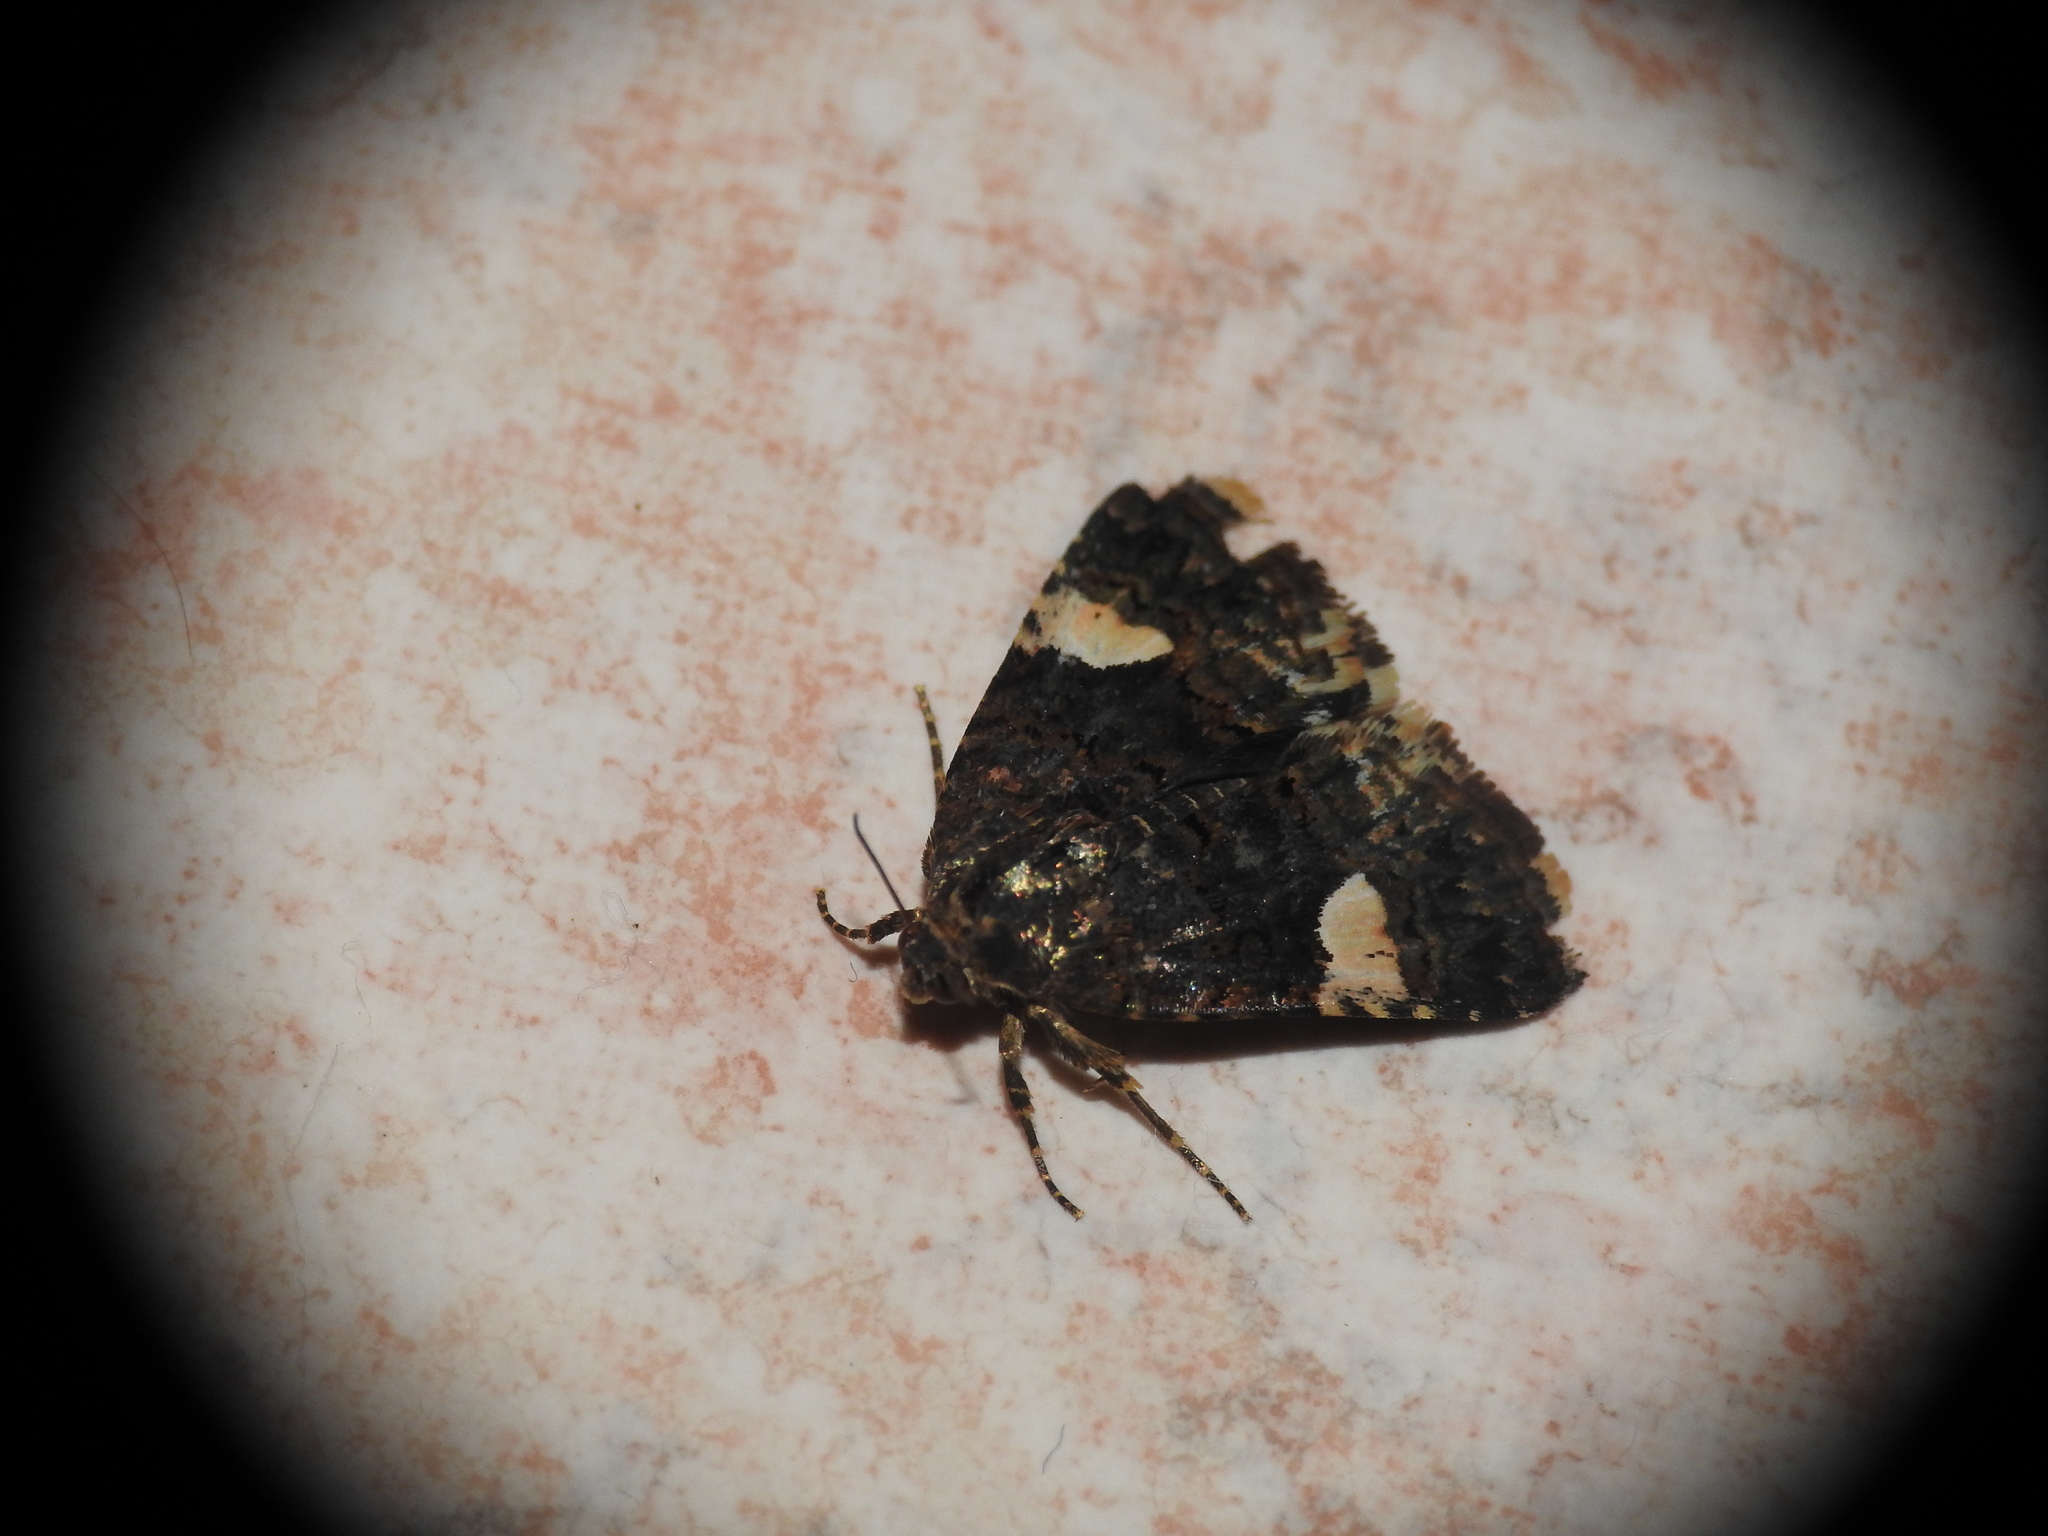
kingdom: Animalia
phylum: Arthropoda
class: Insecta
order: Lepidoptera
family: Erebidae
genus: Tyta
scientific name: Tyta luctuosa
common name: Four-spotted
